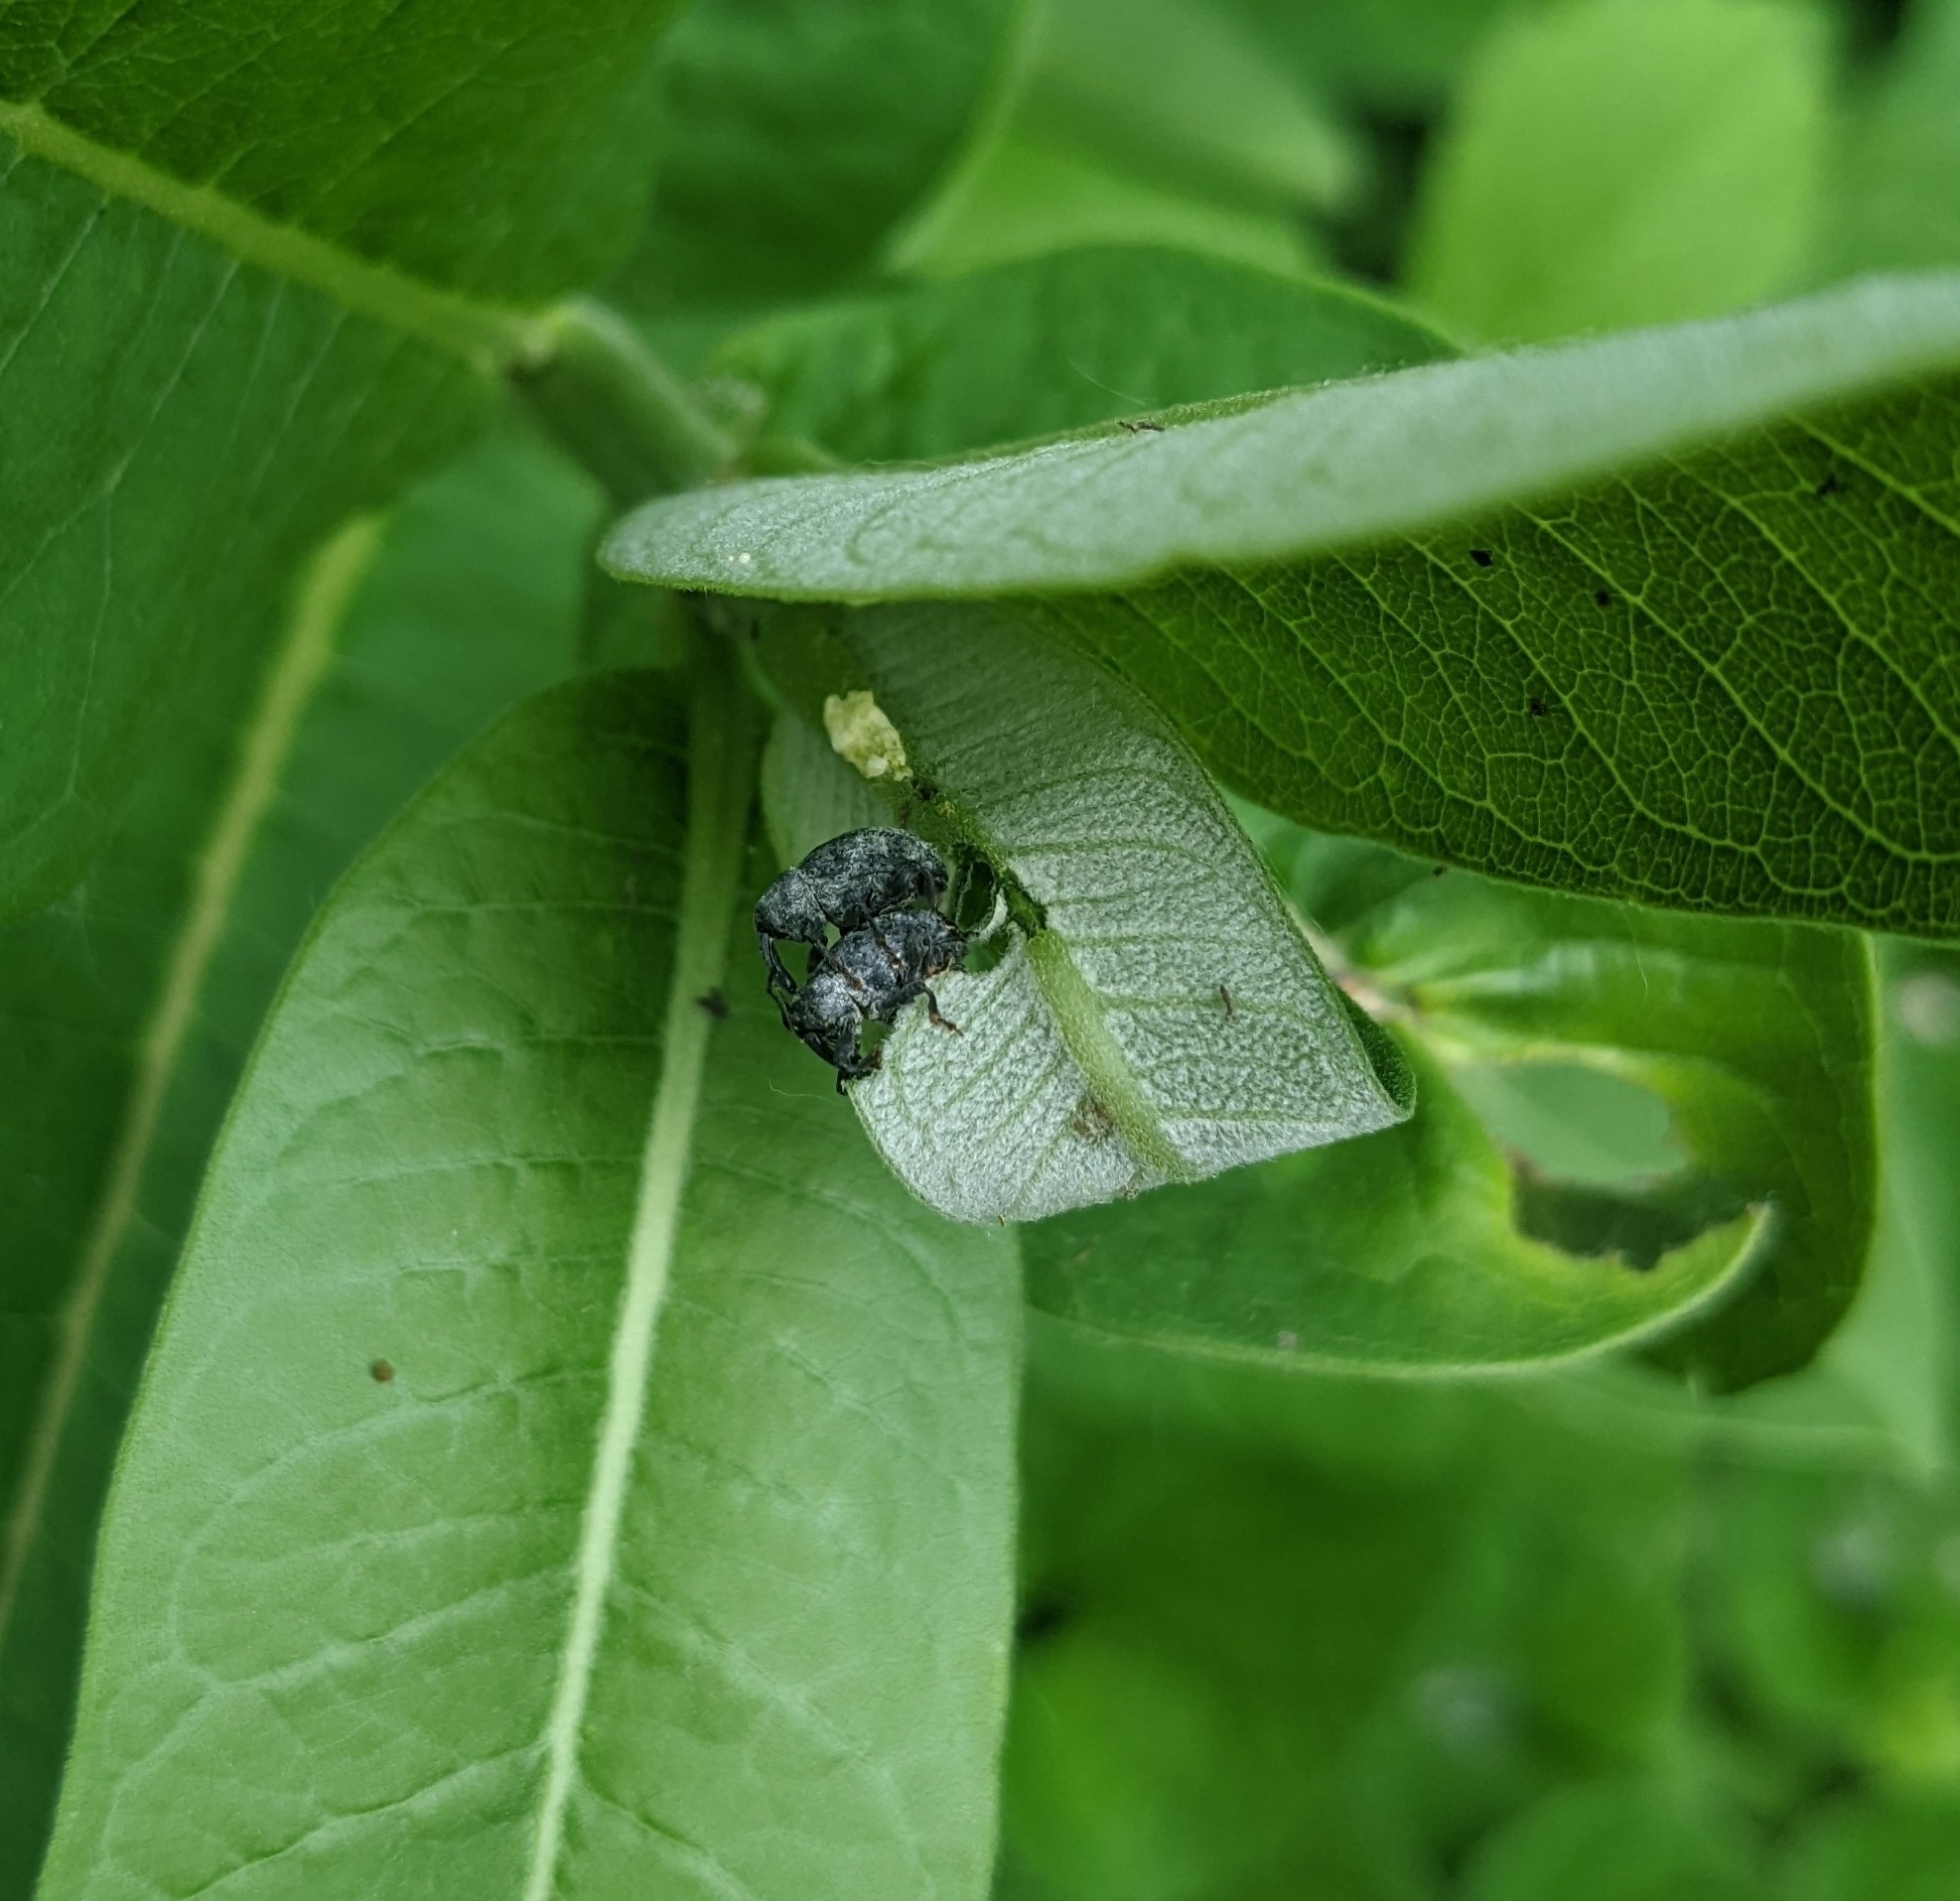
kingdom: Animalia
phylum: Arthropoda
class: Insecta
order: Coleoptera
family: Curculionidae
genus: Rhyssomatus
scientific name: Rhyssomatus lineaticollis
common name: Milkweed stem weevil
